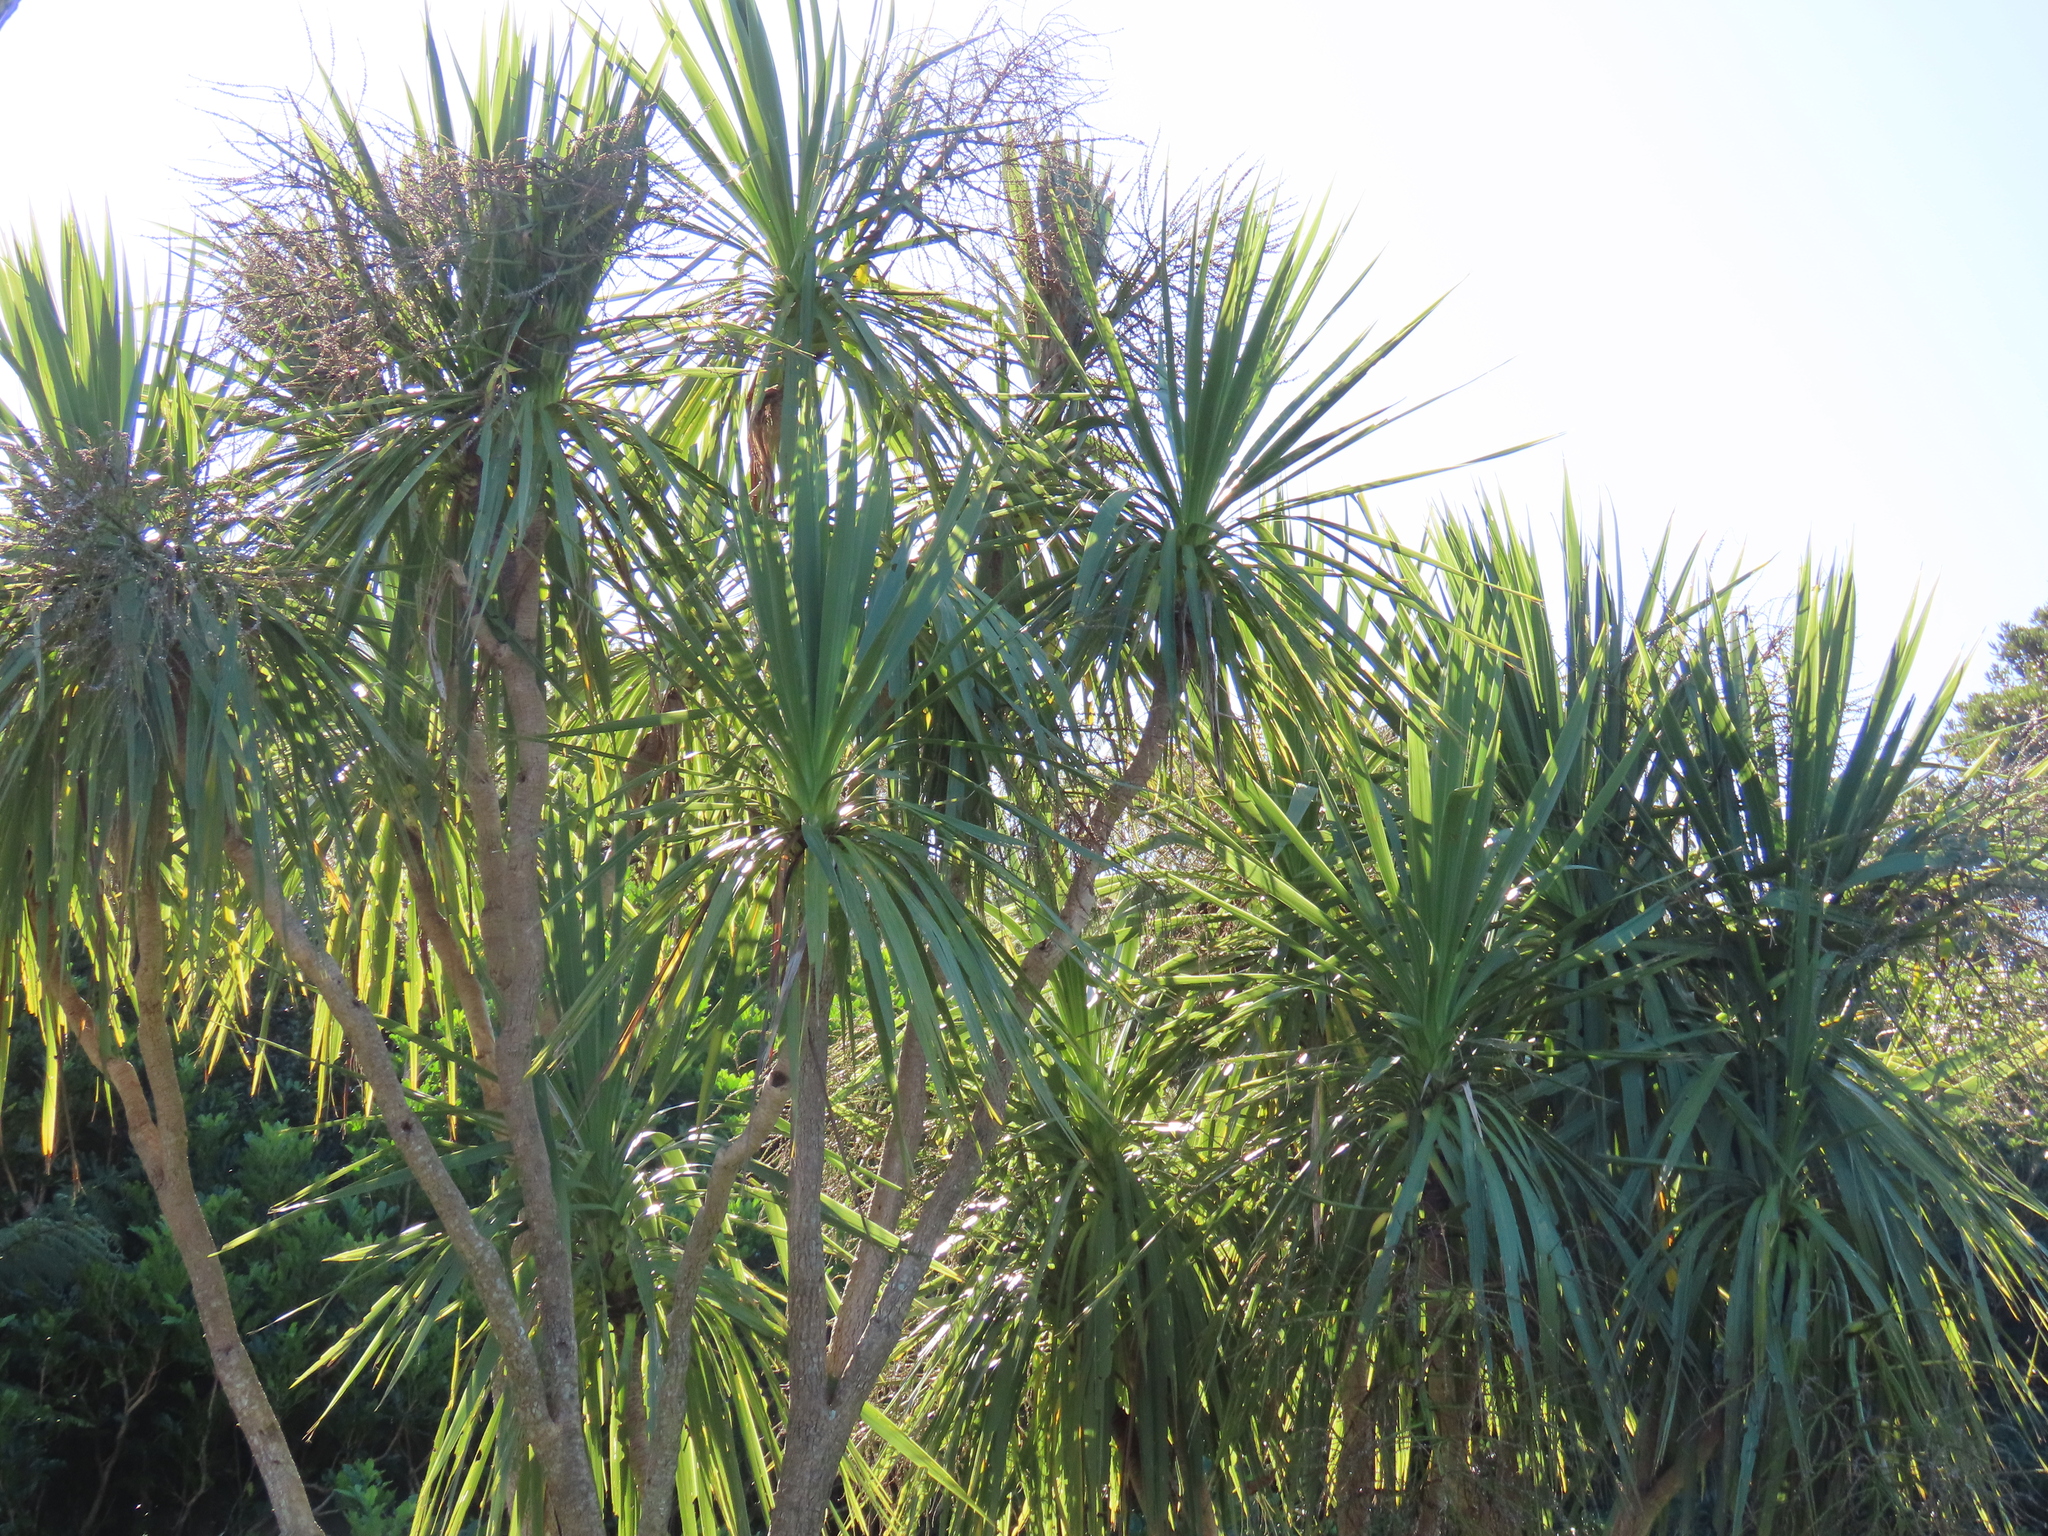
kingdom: Plantae
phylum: Tracheophyta
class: Liliopsida
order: Asparagales
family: Asparagaceae
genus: Cordyline
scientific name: Cordyline australis
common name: Cabbage-palm
